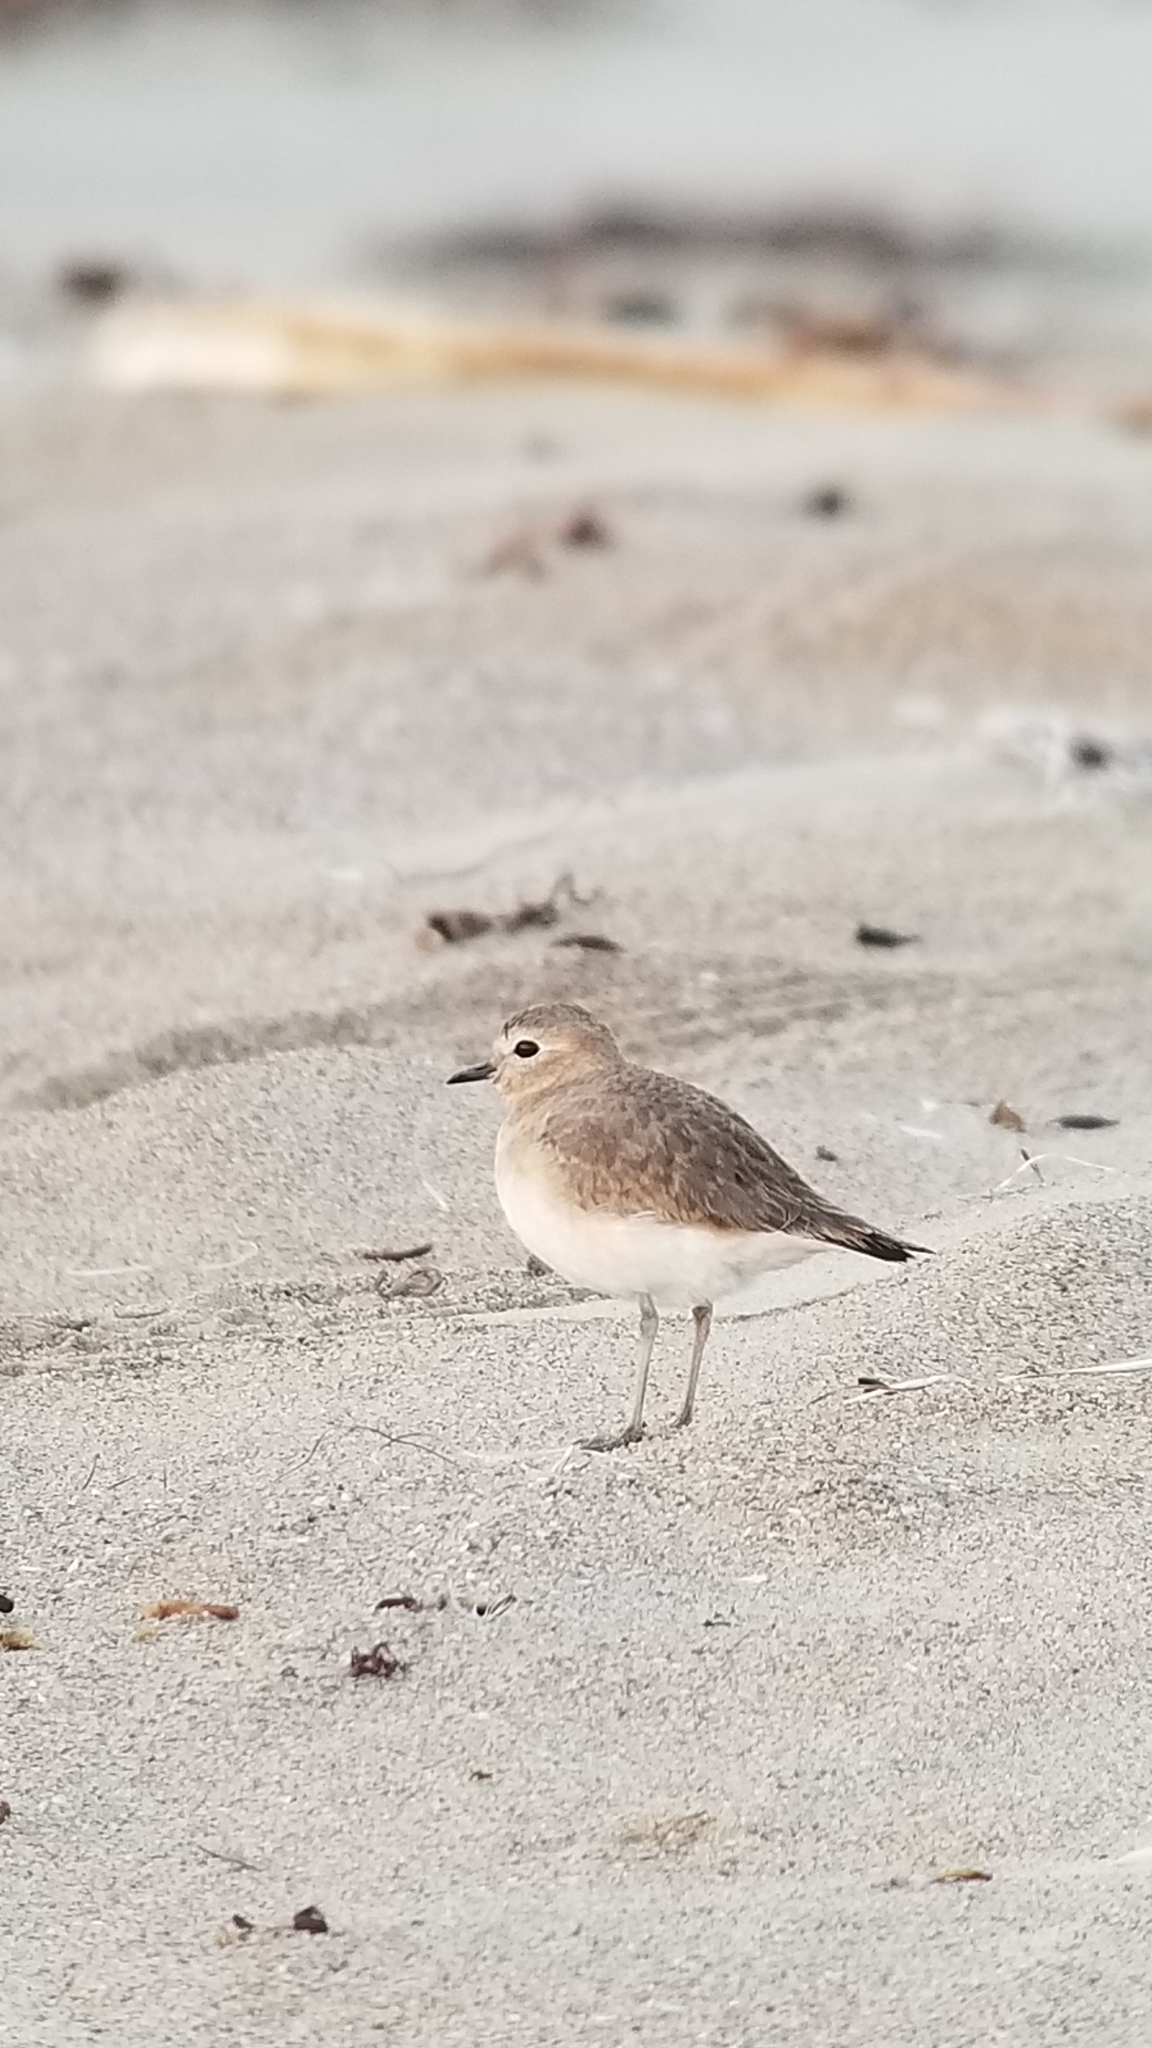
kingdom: Animalia
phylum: Chordata
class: Aves
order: Charadriiformes
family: Charadriidae
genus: Anarhynchus
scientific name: Anarhynchus
